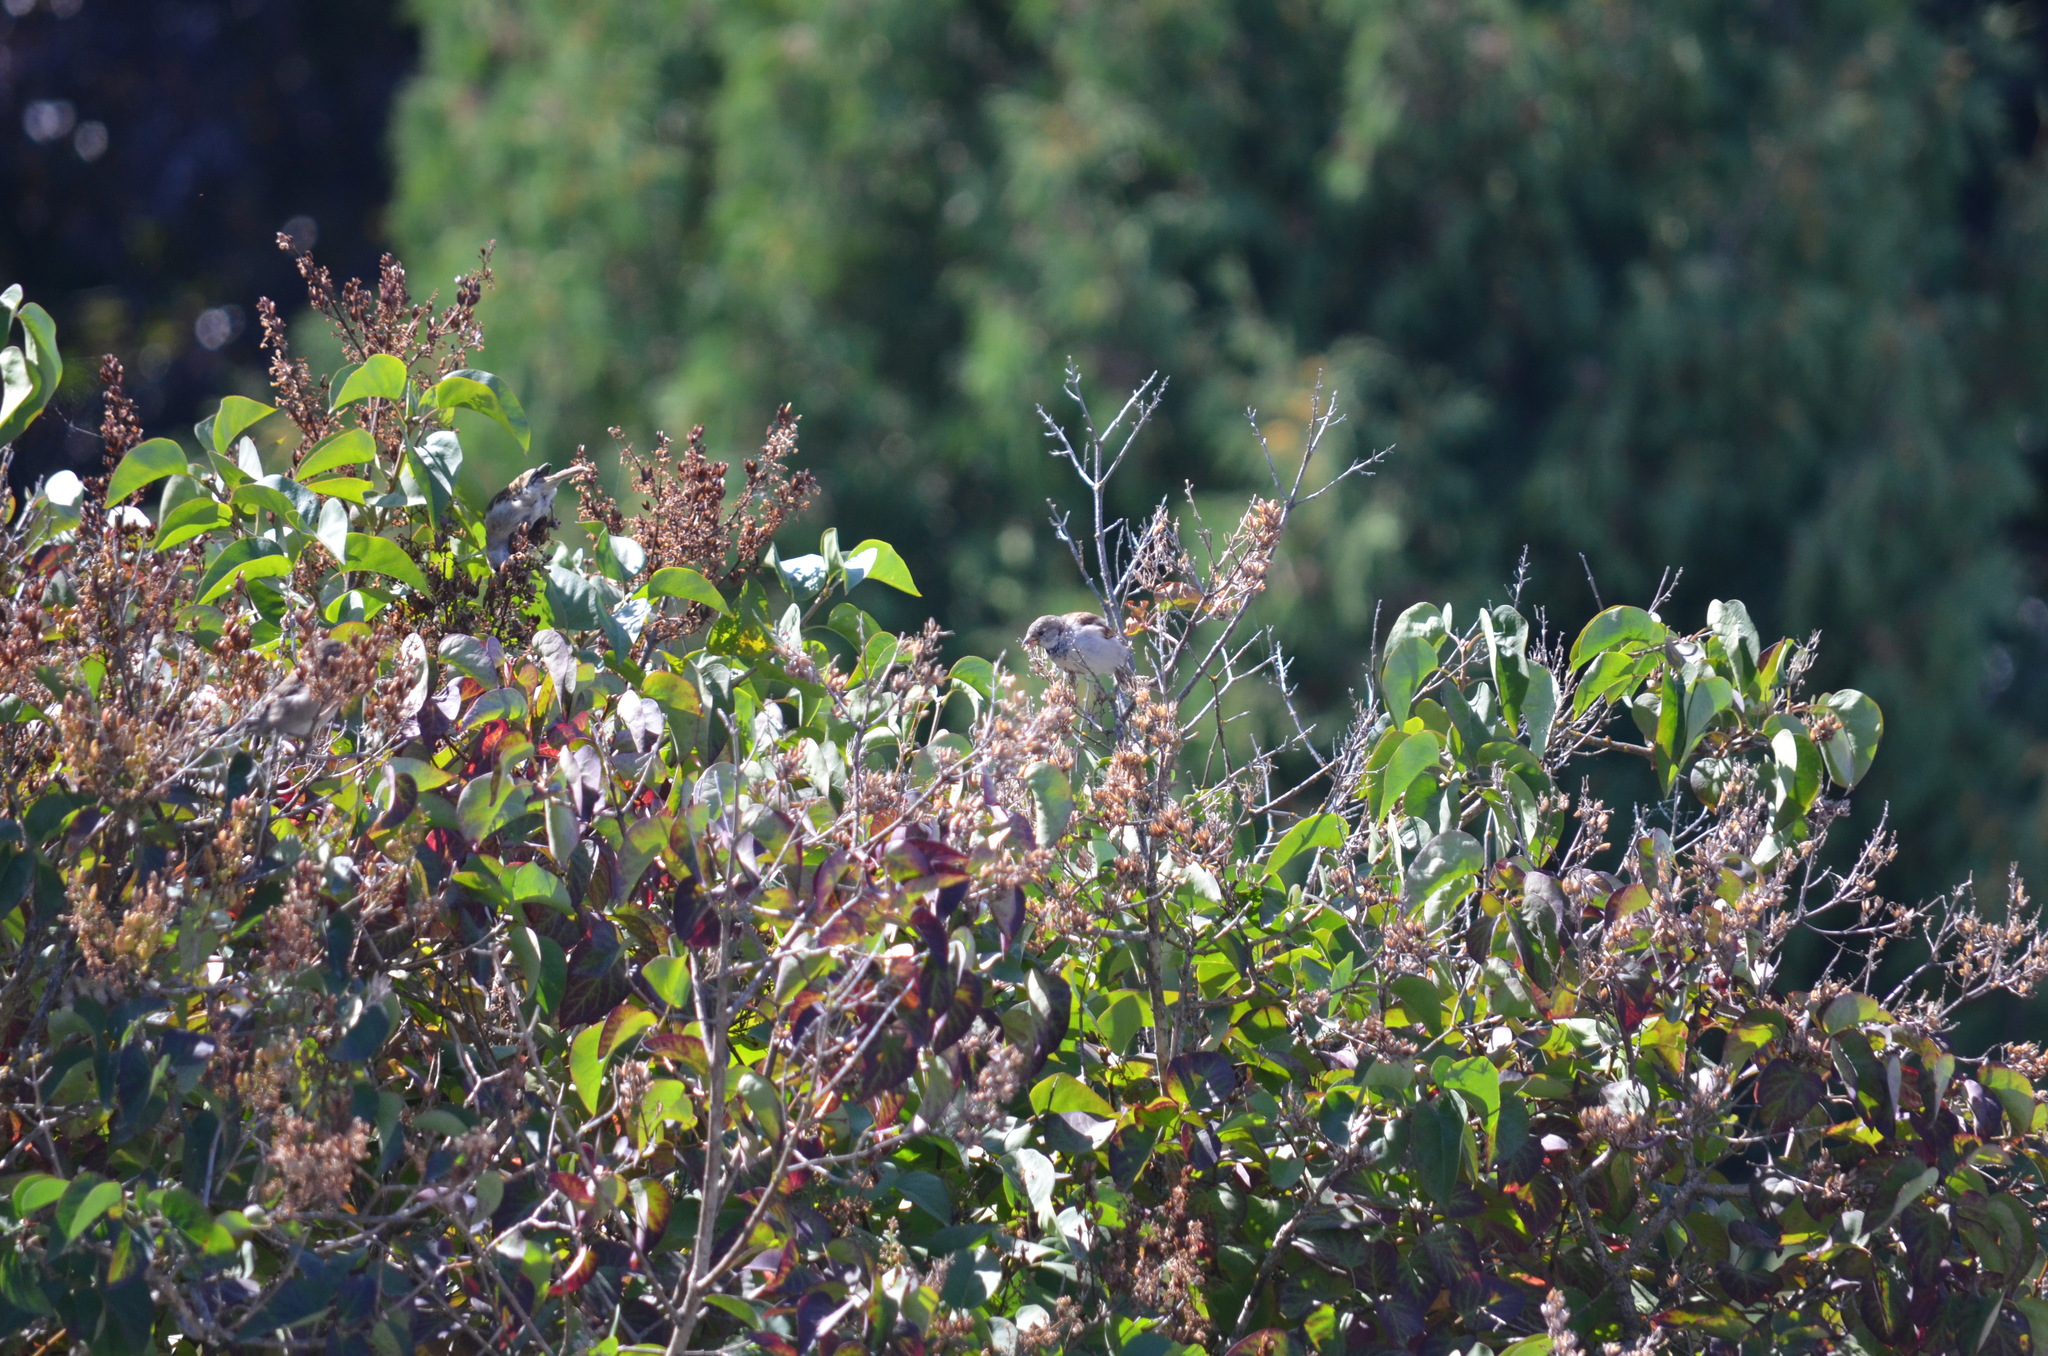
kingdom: Animalia
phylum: Chordata
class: Aves
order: Passeriformes
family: Passeridae
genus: Passer
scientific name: Passer domesticus
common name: House sparrow
